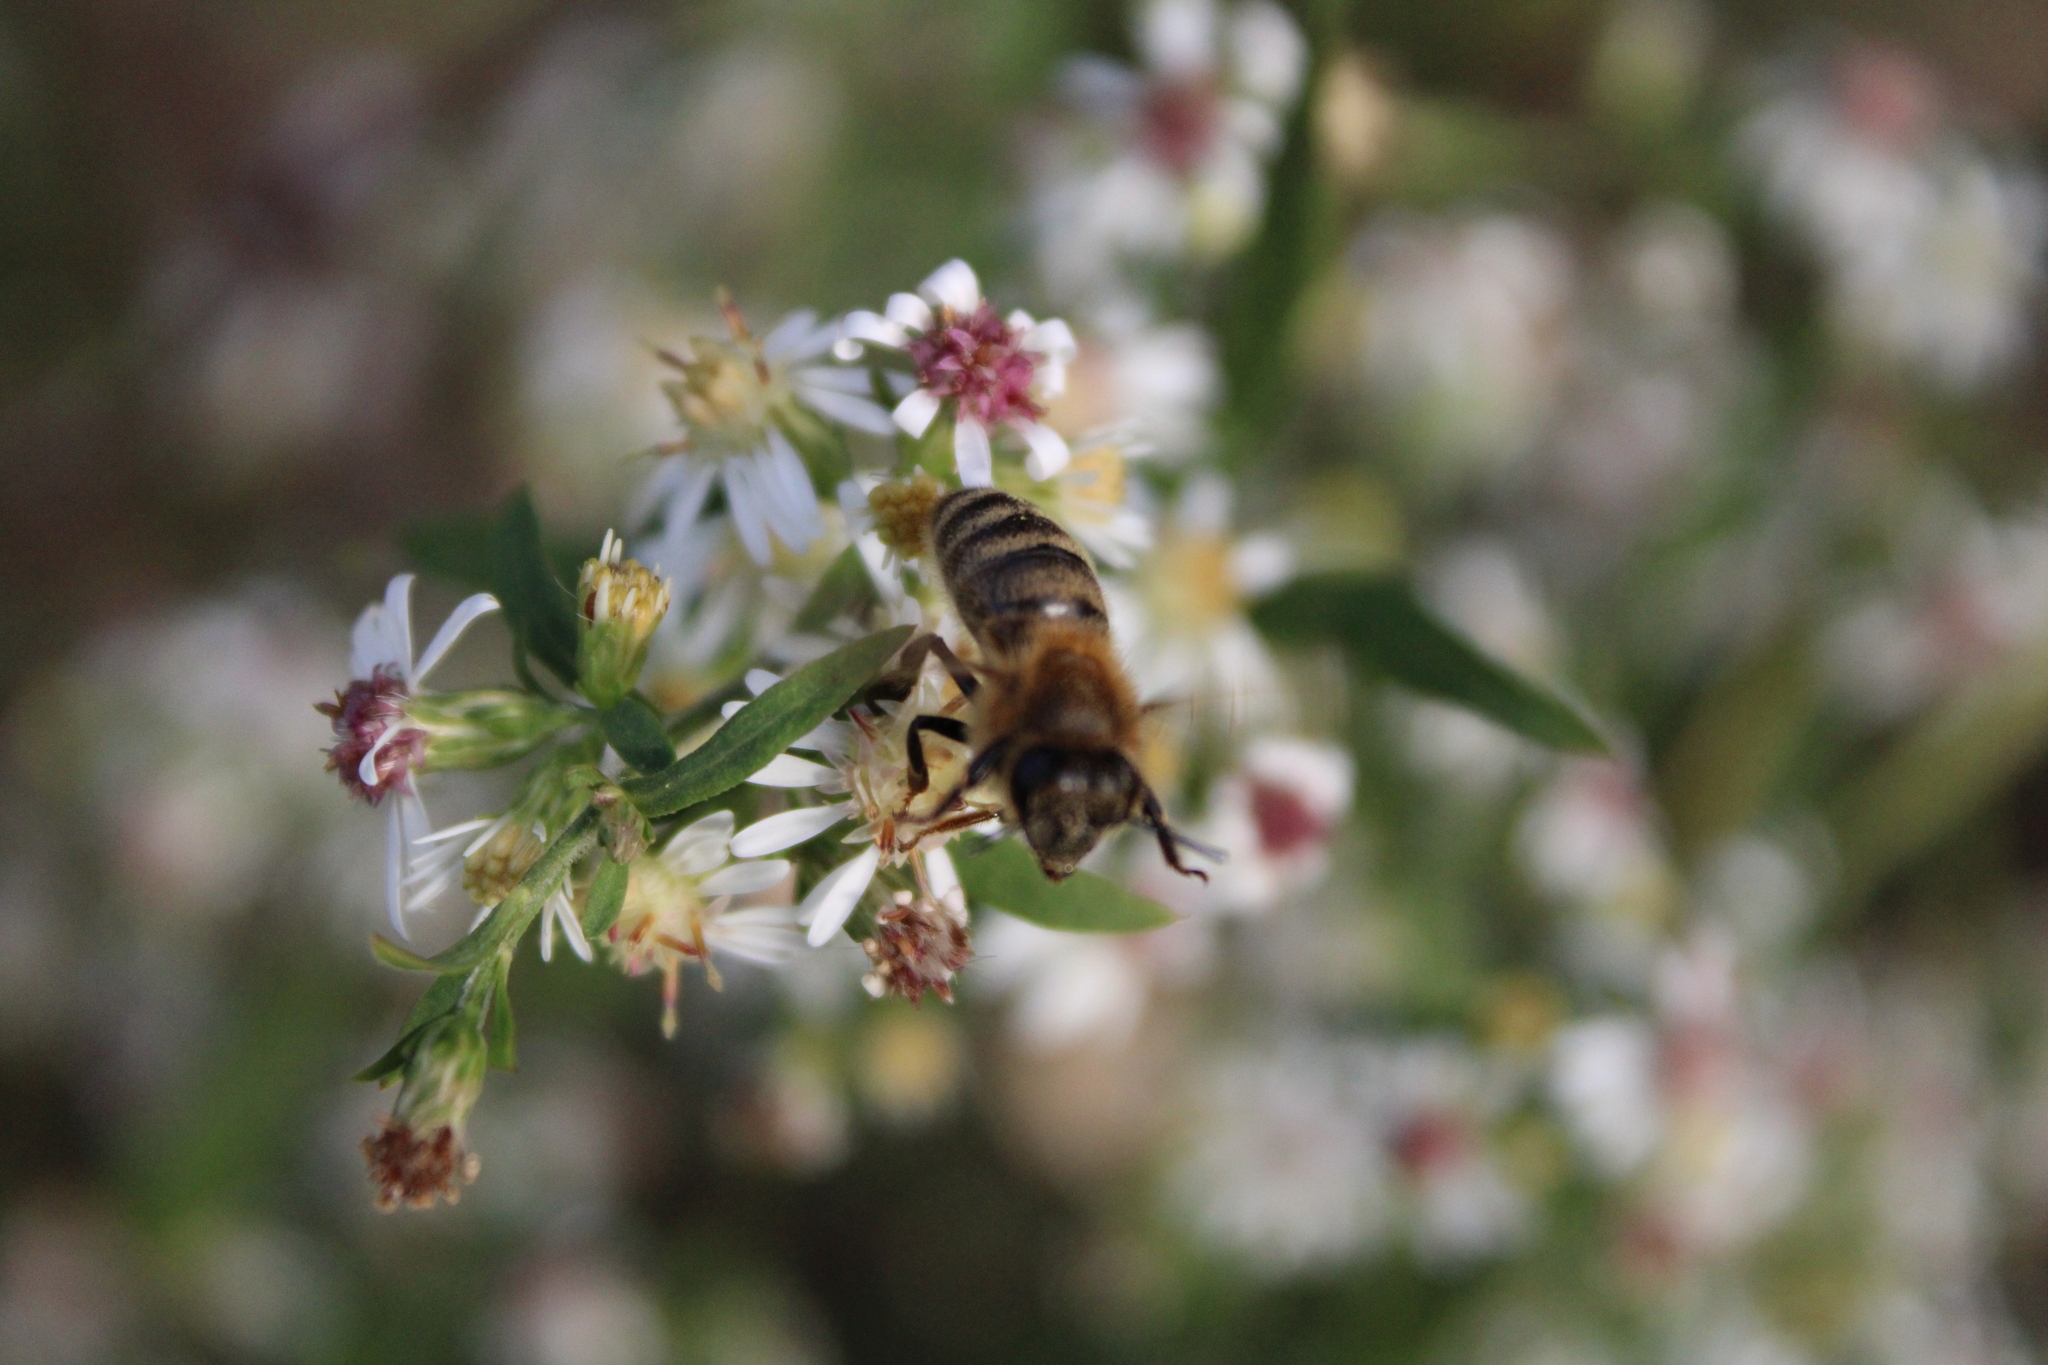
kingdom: Animalia
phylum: Arthropoda
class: Insecta
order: Hymenoptera
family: Apidae
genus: Apis
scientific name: Apis mellifera
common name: Honey bee
